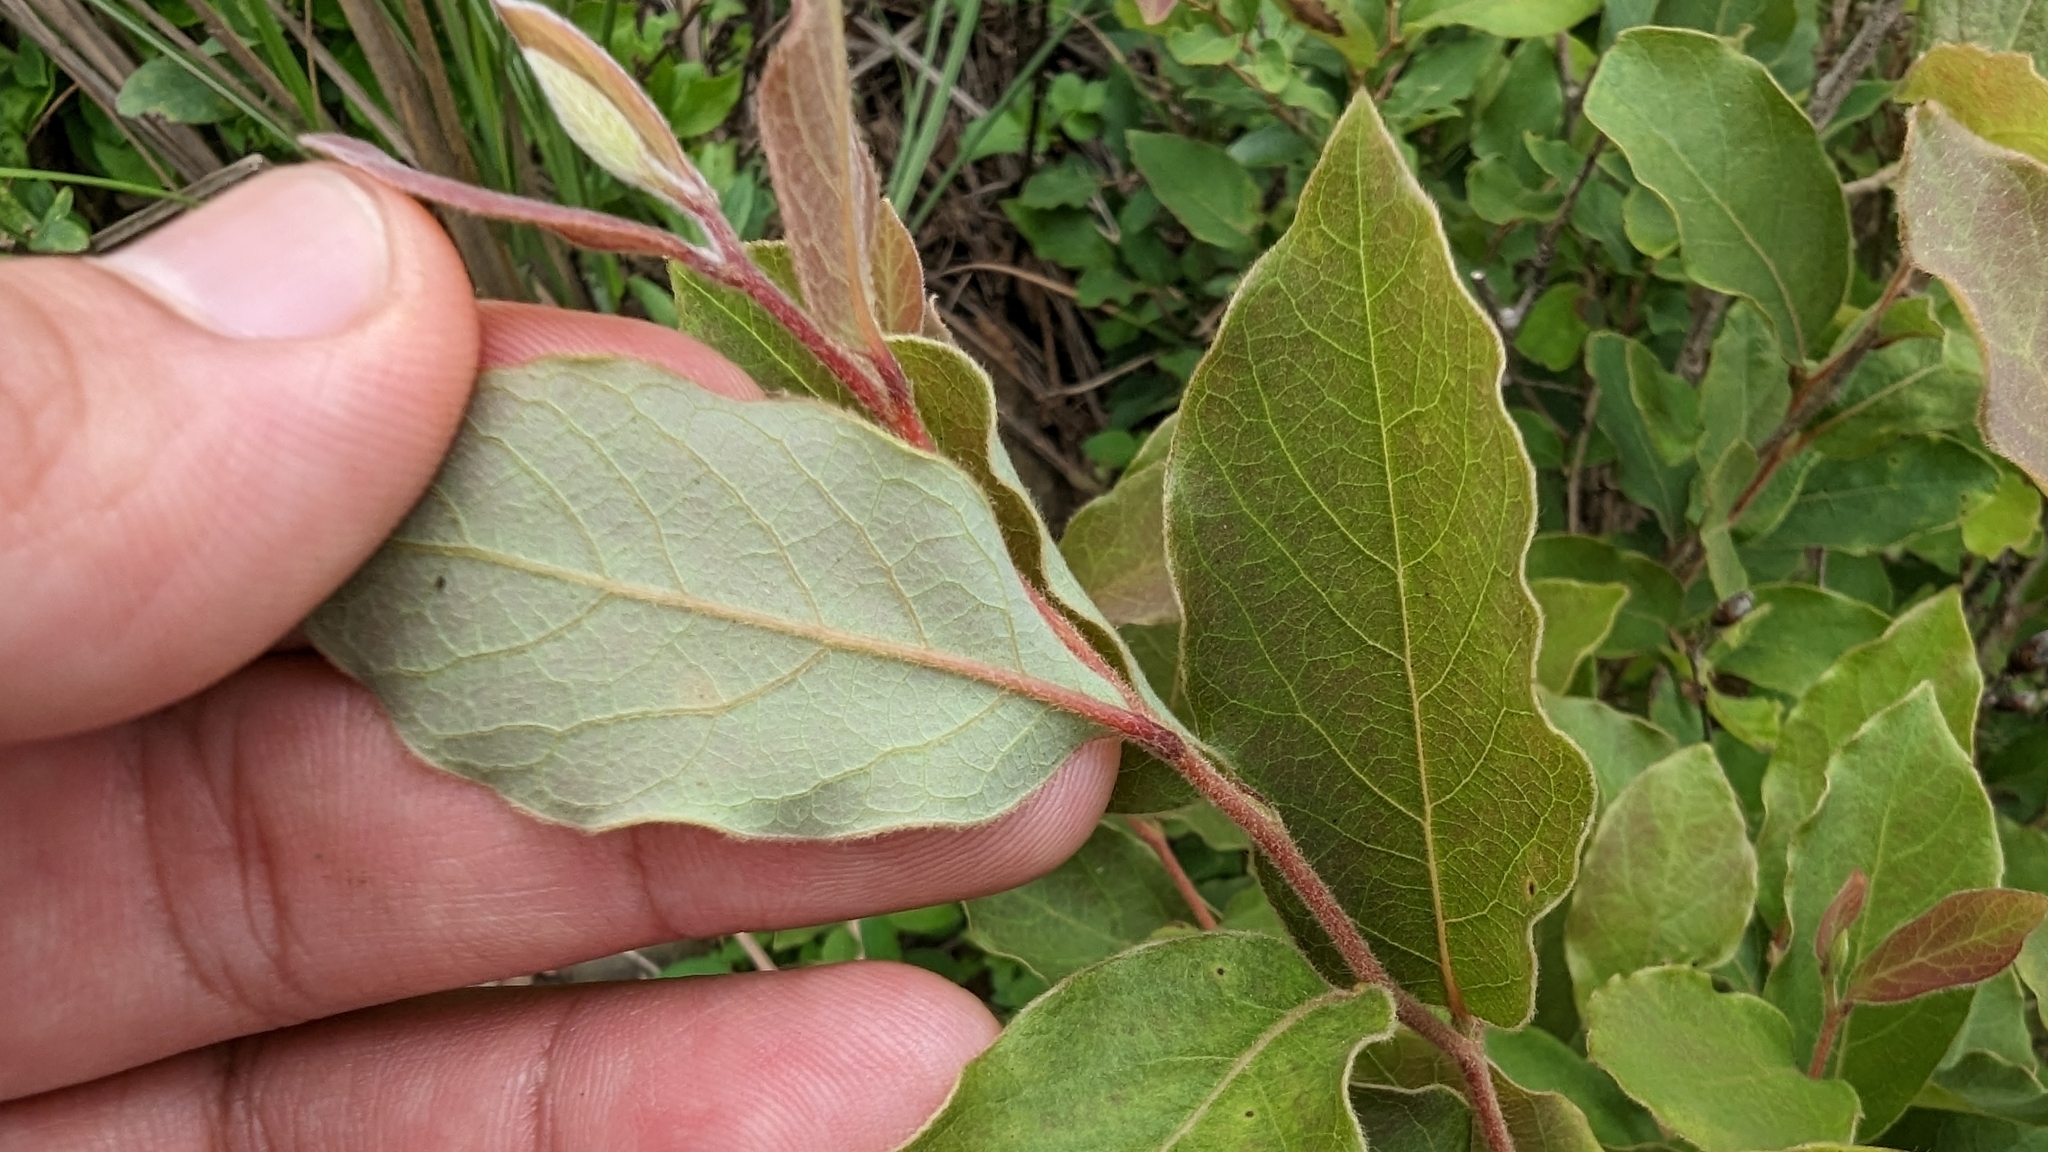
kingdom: Plantae
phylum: Tracheophyta
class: Magnoliopsida
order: Laurales
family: Lauraceae
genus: Lindera
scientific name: Lindera glauca
